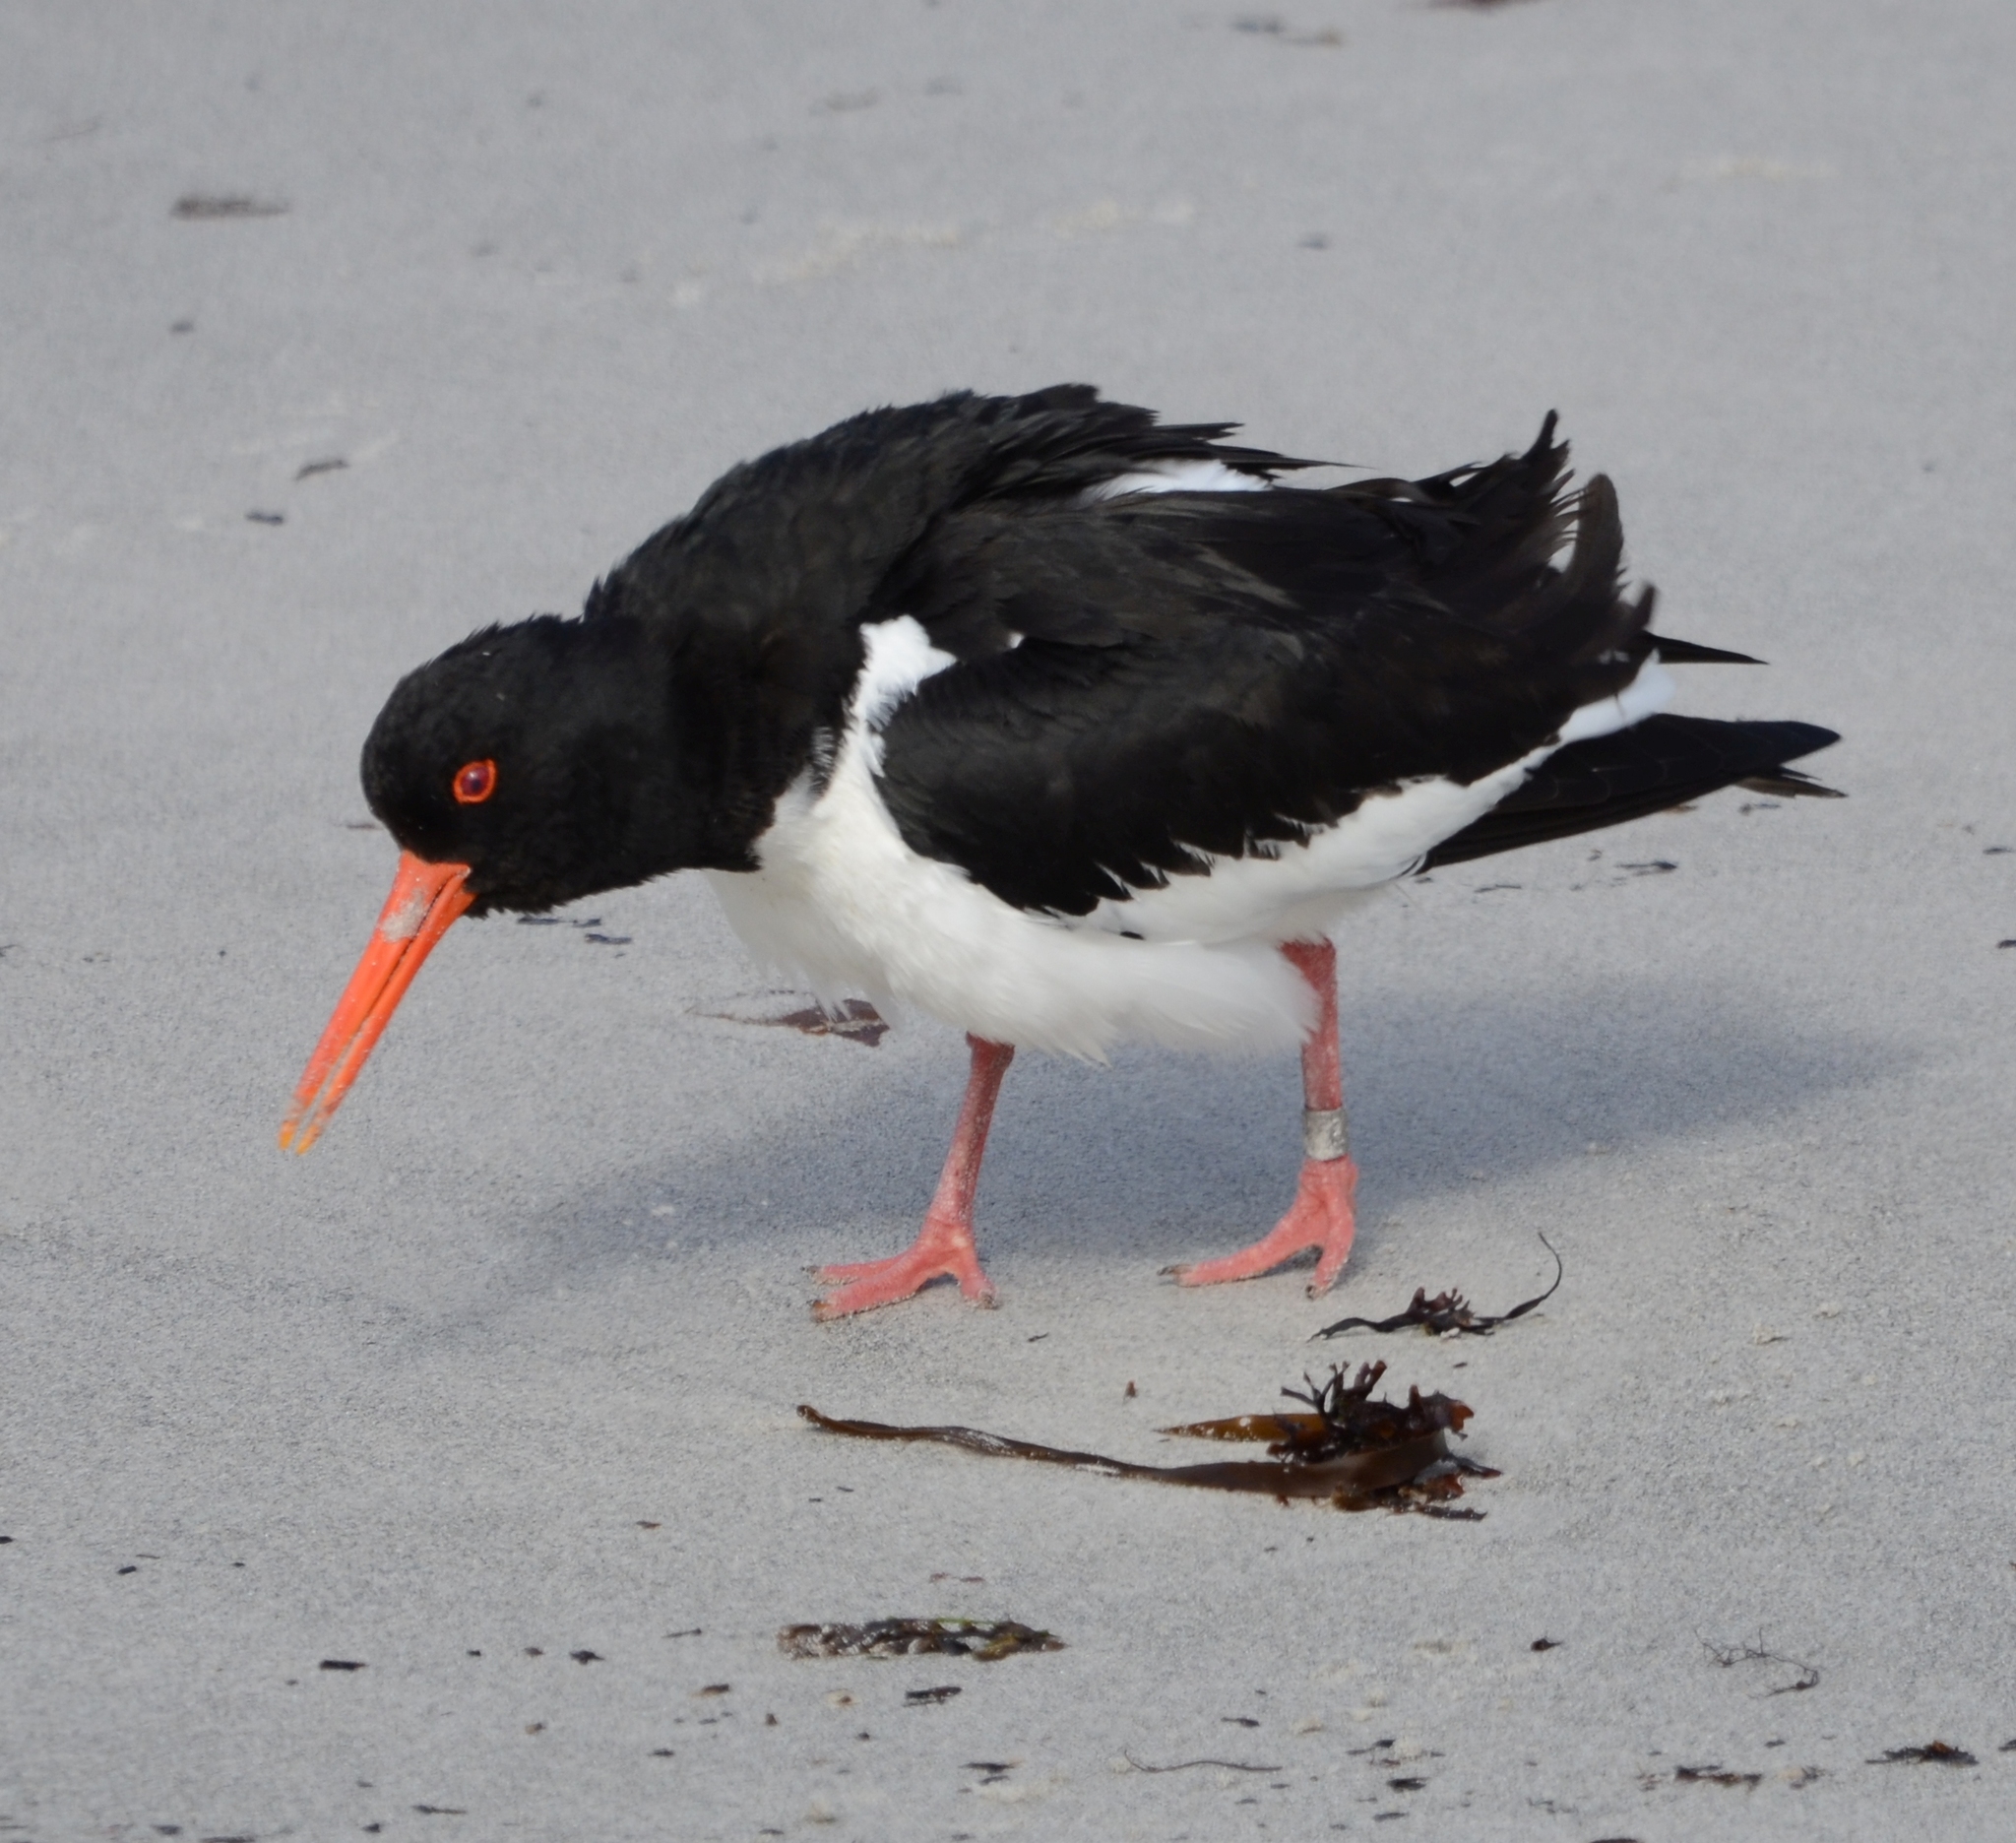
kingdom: Animalia
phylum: Chordata
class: Aves
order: Charadriiformes
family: Haematopodidae
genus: Haematopus
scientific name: Haematopus ostralegus
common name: Eurasian oystercatcher
